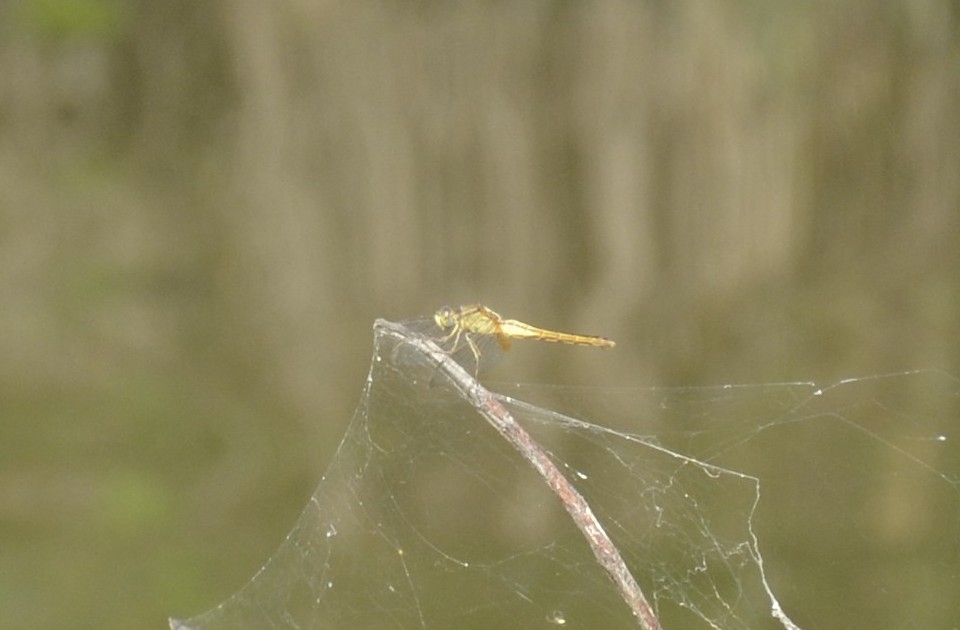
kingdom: Animalia
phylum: Arthropoda
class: Insecta
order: Odonata
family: Libellulidae
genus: Crocothemis
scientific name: Crocothemis servilia
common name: Scarlet skimmer
